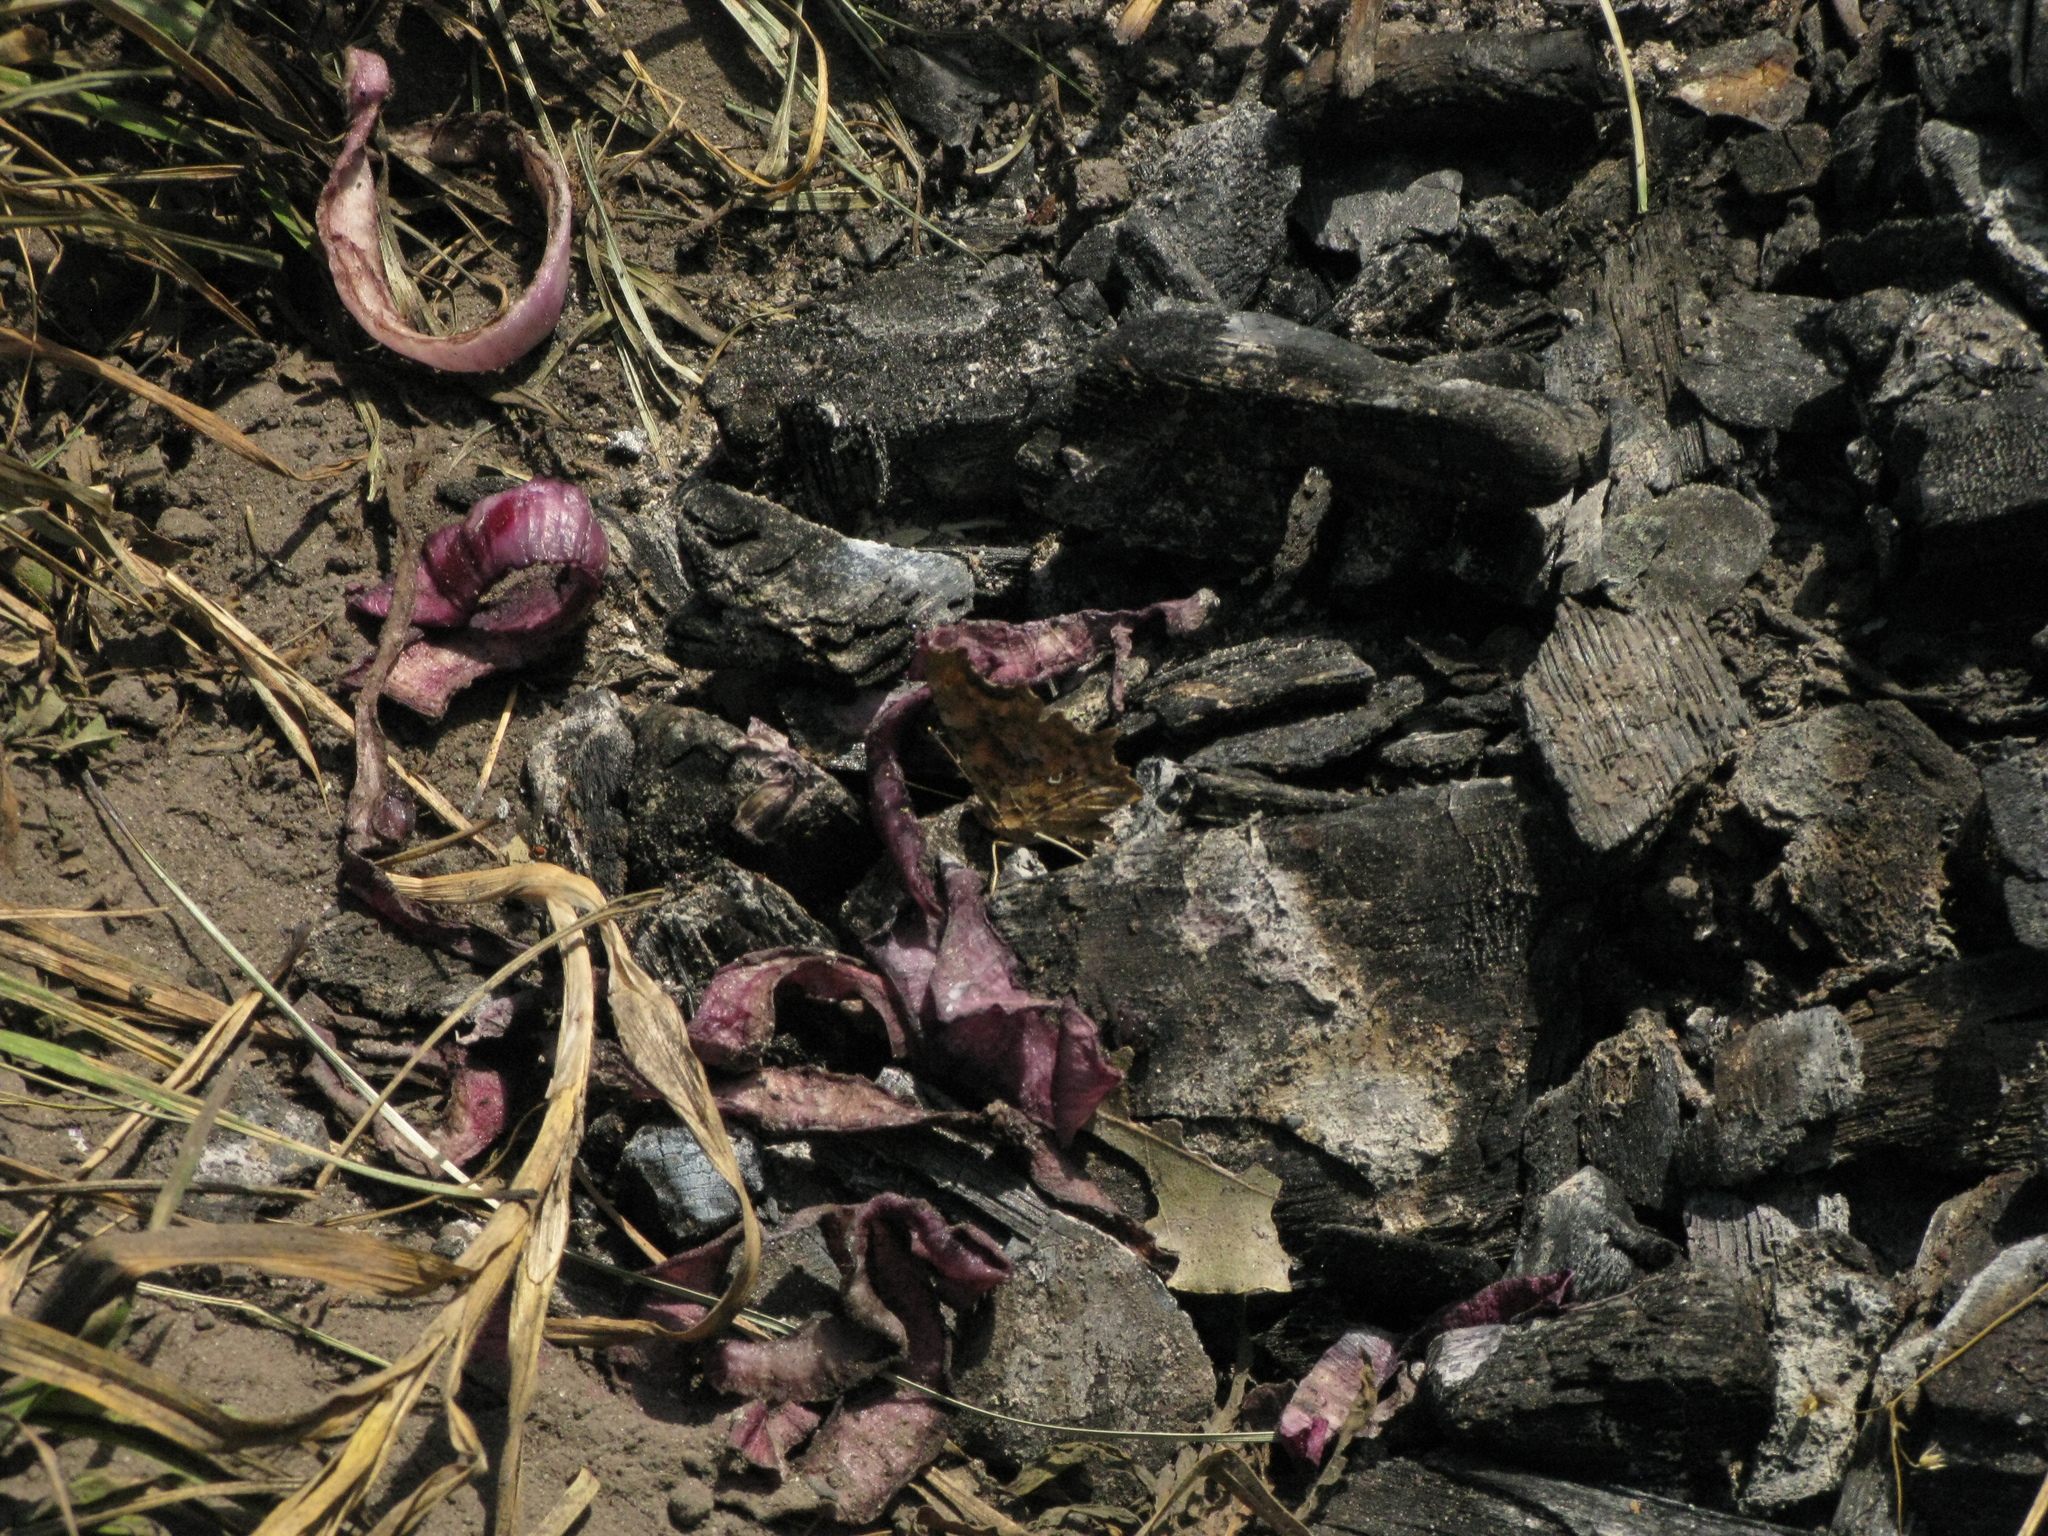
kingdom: Animalia
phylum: Arthropoda
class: Insecta
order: Lepidoptera
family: Nymphalidae
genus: Polygonia
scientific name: Polygonia c-album
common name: Comma
